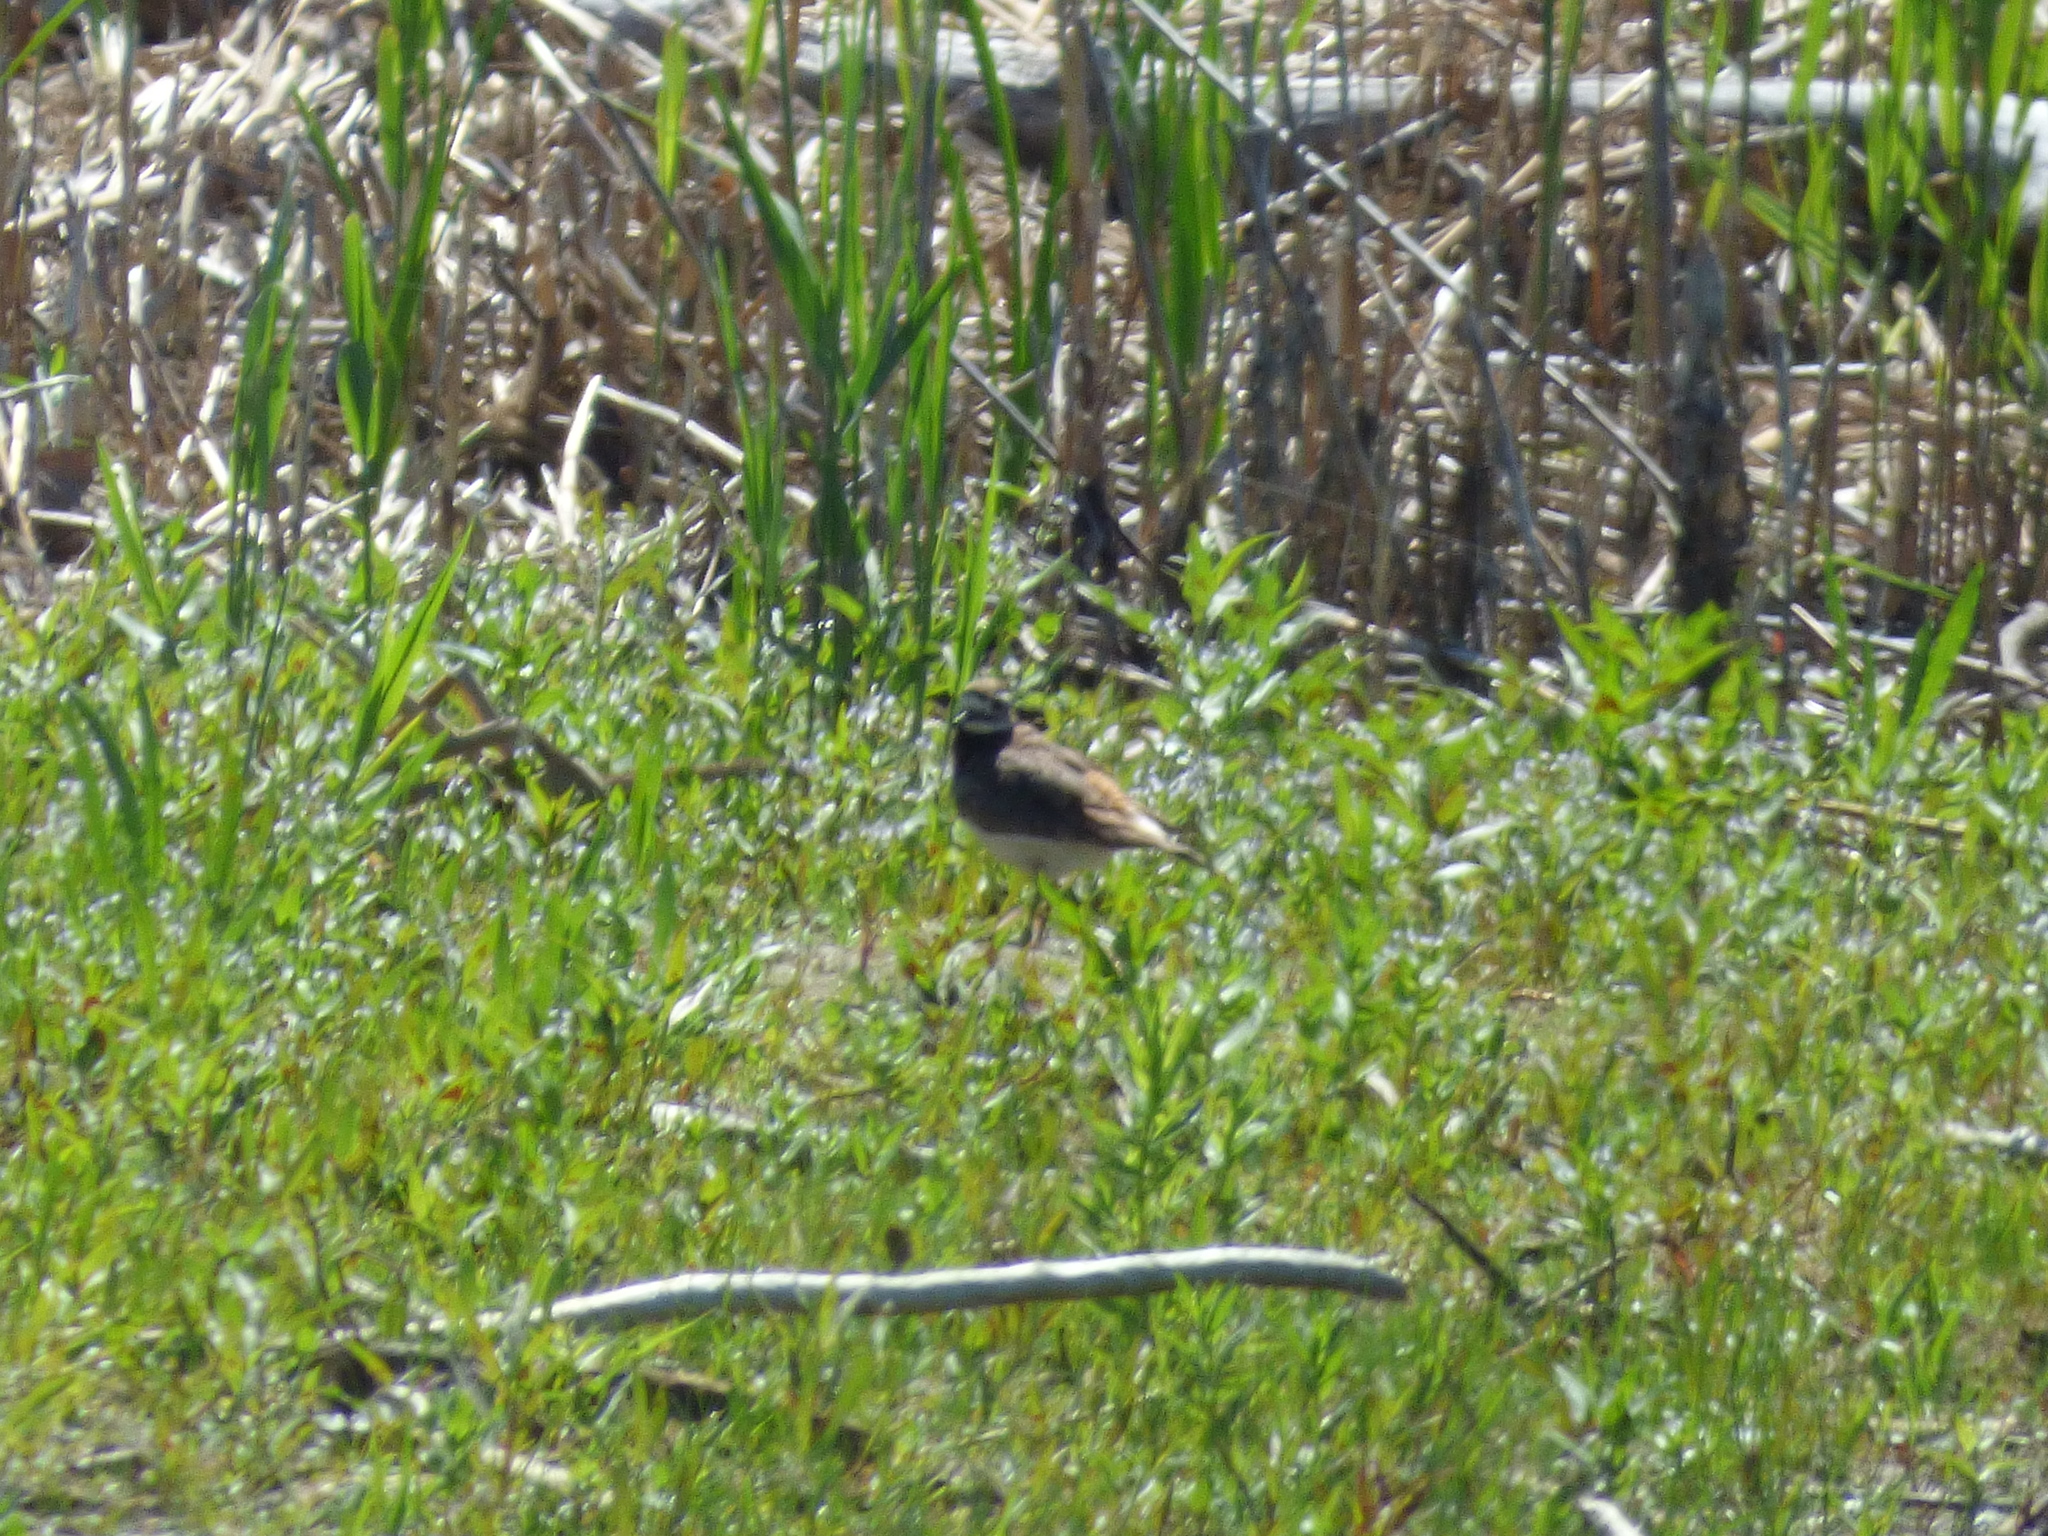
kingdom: Animalia
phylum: Chordata
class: Aves
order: Charadriiformes
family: Charadriidae
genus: Charadrius
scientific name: Charadrius vociferus
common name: Killdeer
